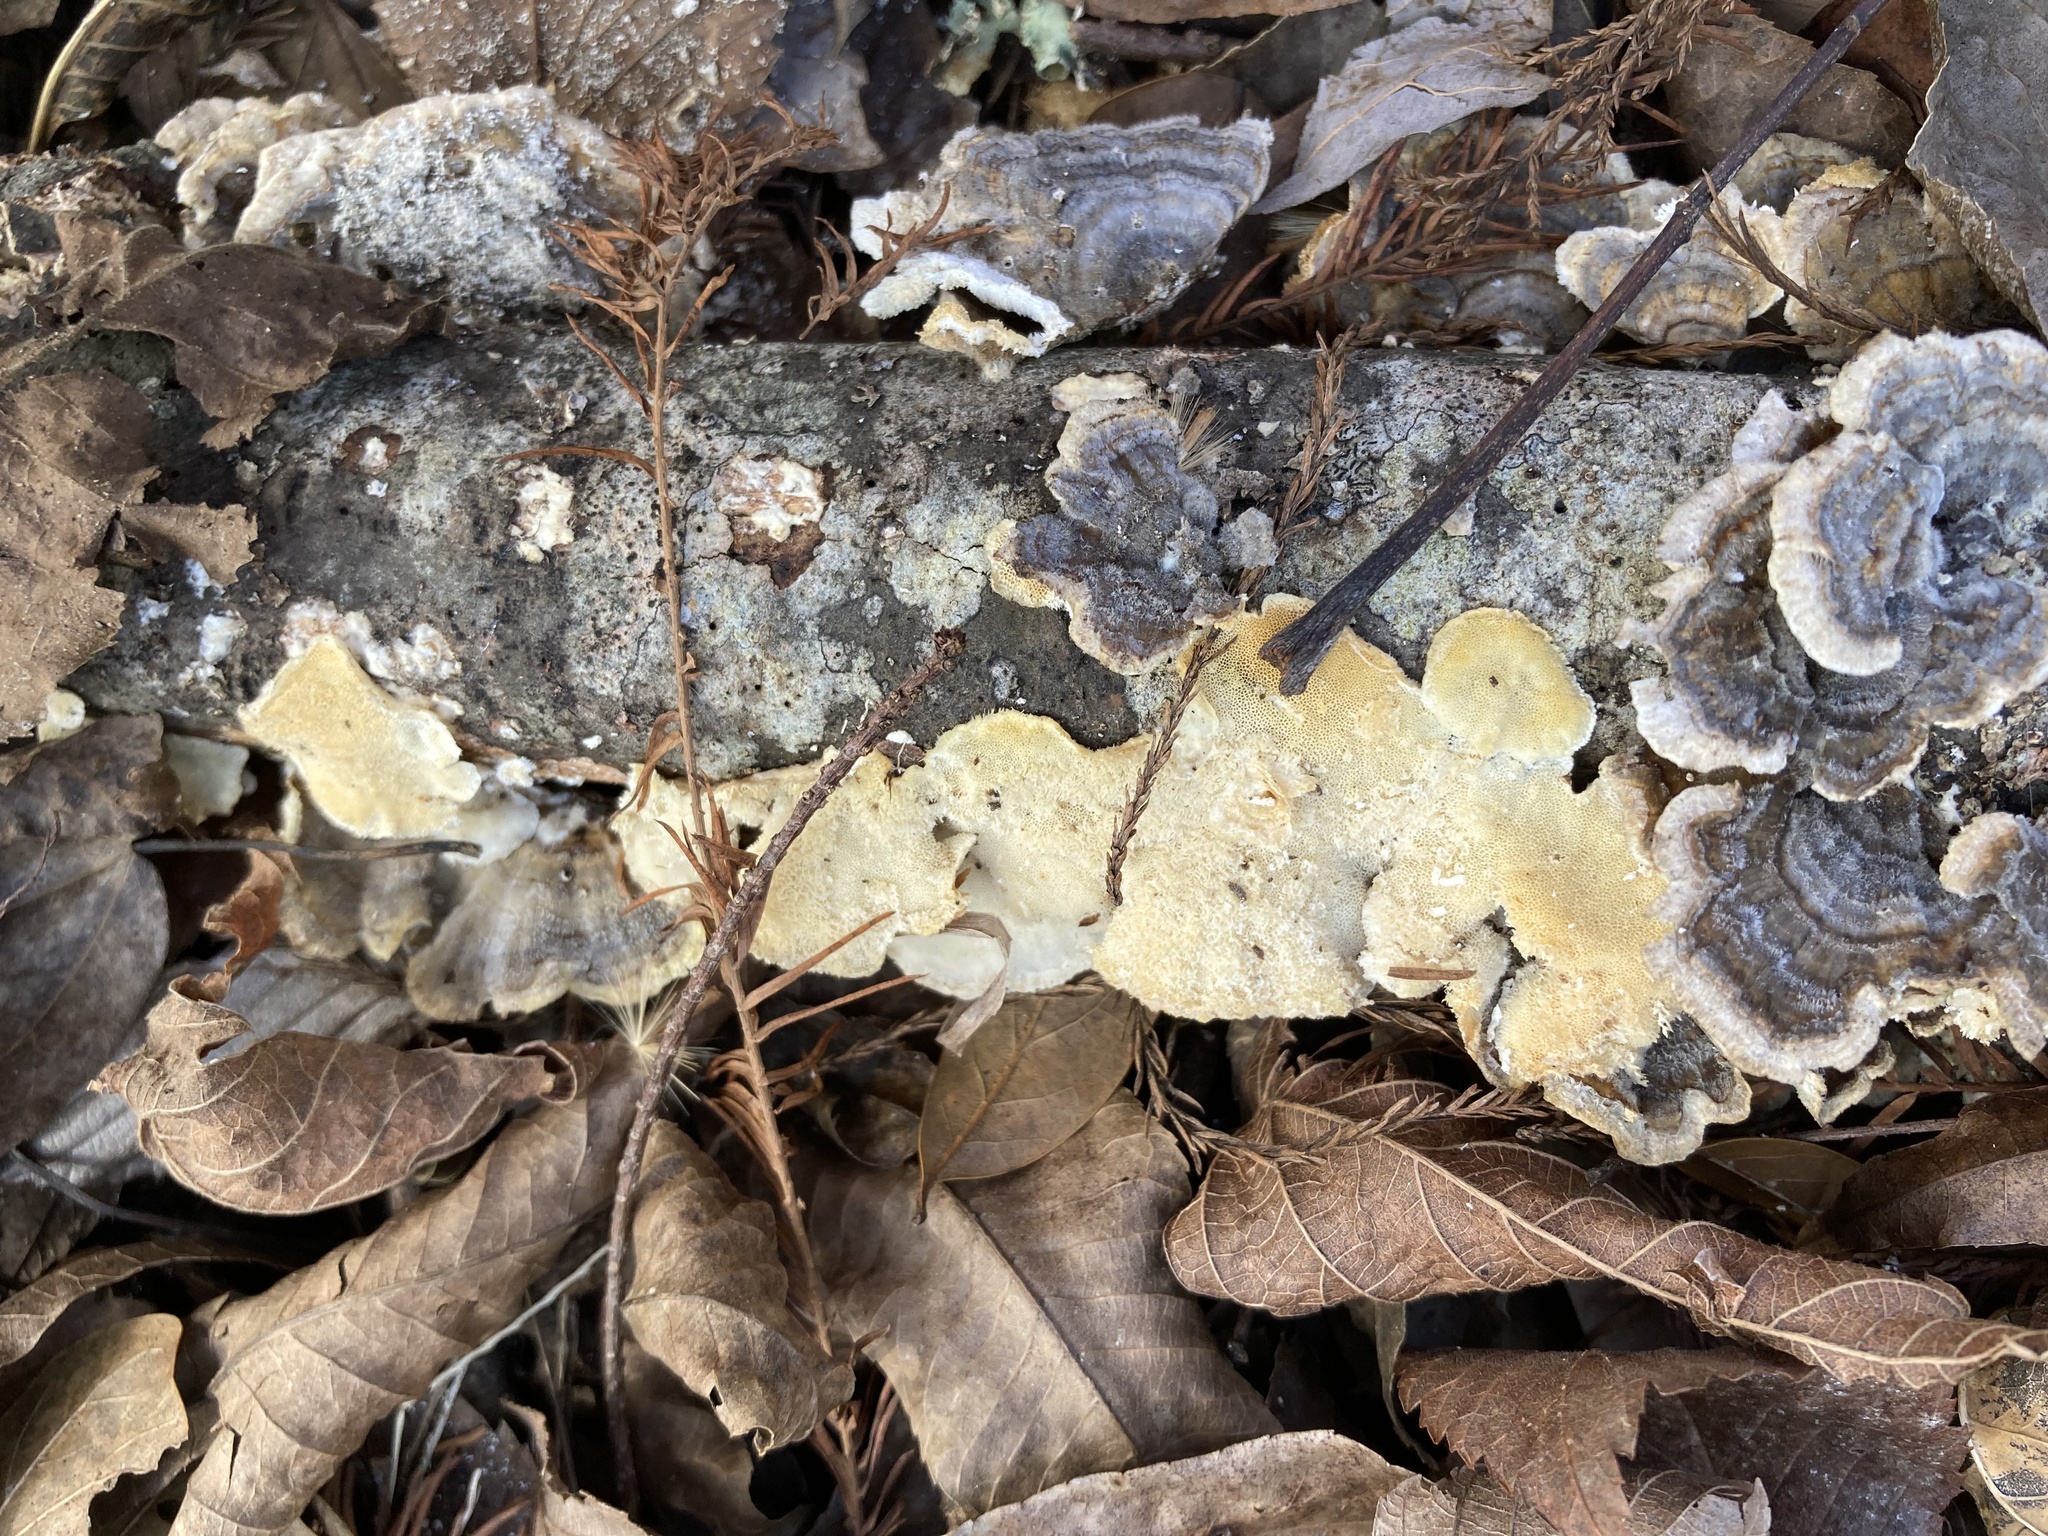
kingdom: Fungi
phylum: Basidiomycota
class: Agaricomycetes
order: Polyporales
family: Polyporaceae
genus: Trametes
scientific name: Trametes versicolor
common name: Turkeytail
